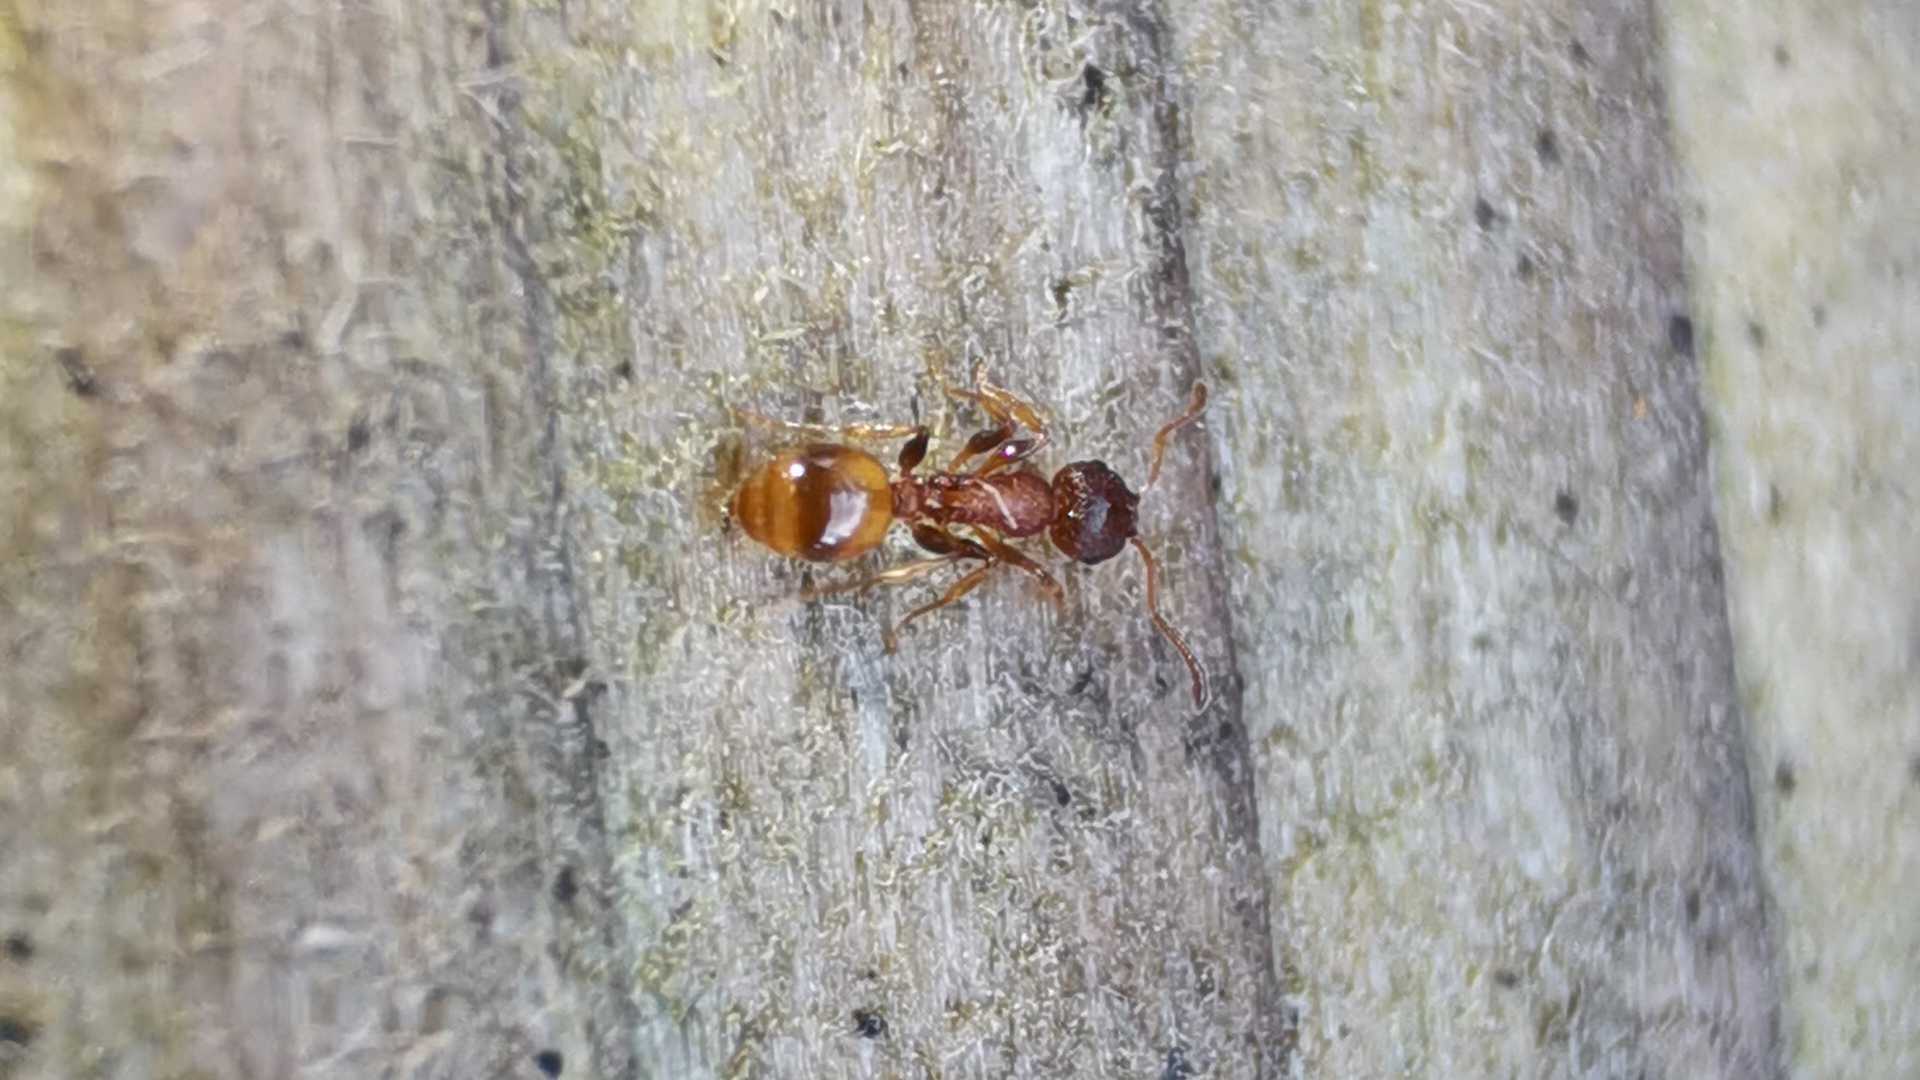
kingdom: Animalia
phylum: Arthropoda
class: Insecta
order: Hymenoptera
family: Formicidae
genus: Leptothorax
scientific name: Leptothorax affinis
